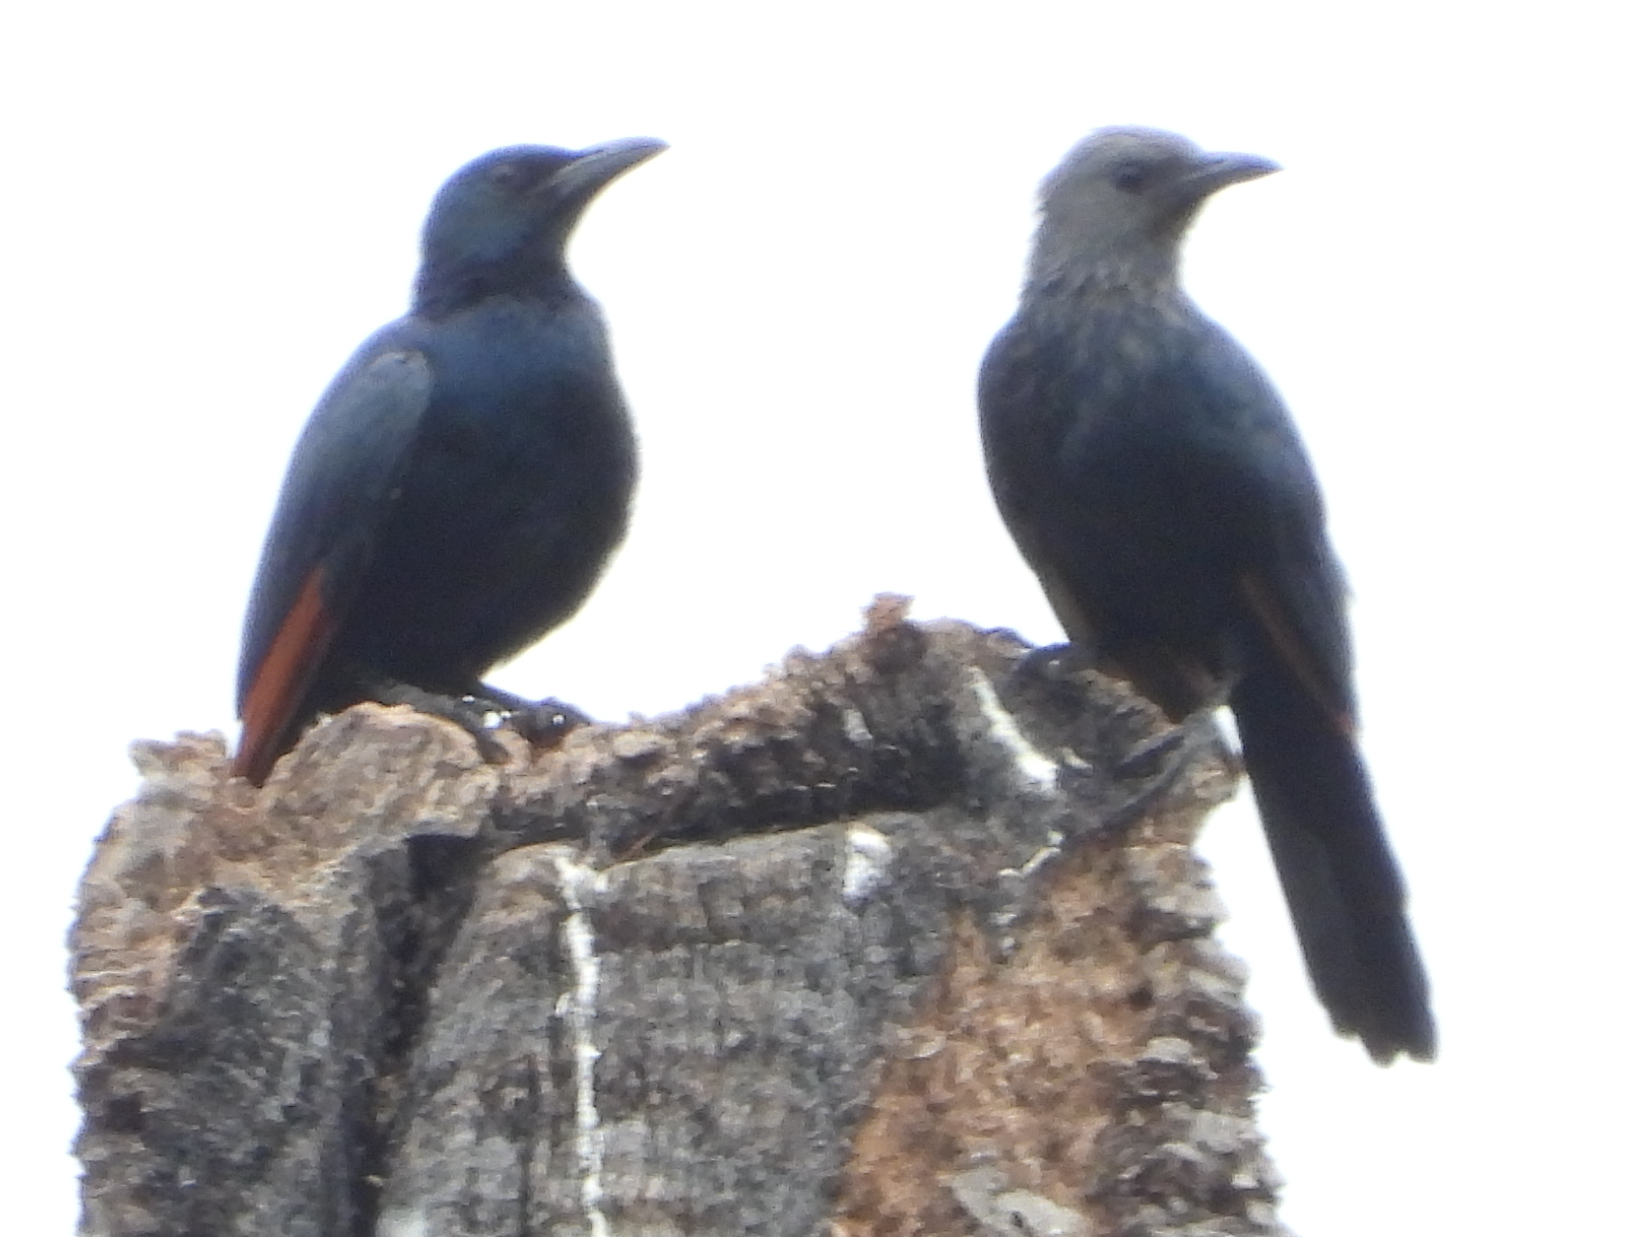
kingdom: Animalia
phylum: Chordata
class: Aves
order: Passeriformes
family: Sturnidae
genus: Onychognathus
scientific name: Onychognathus morio
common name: Red-winged starling
